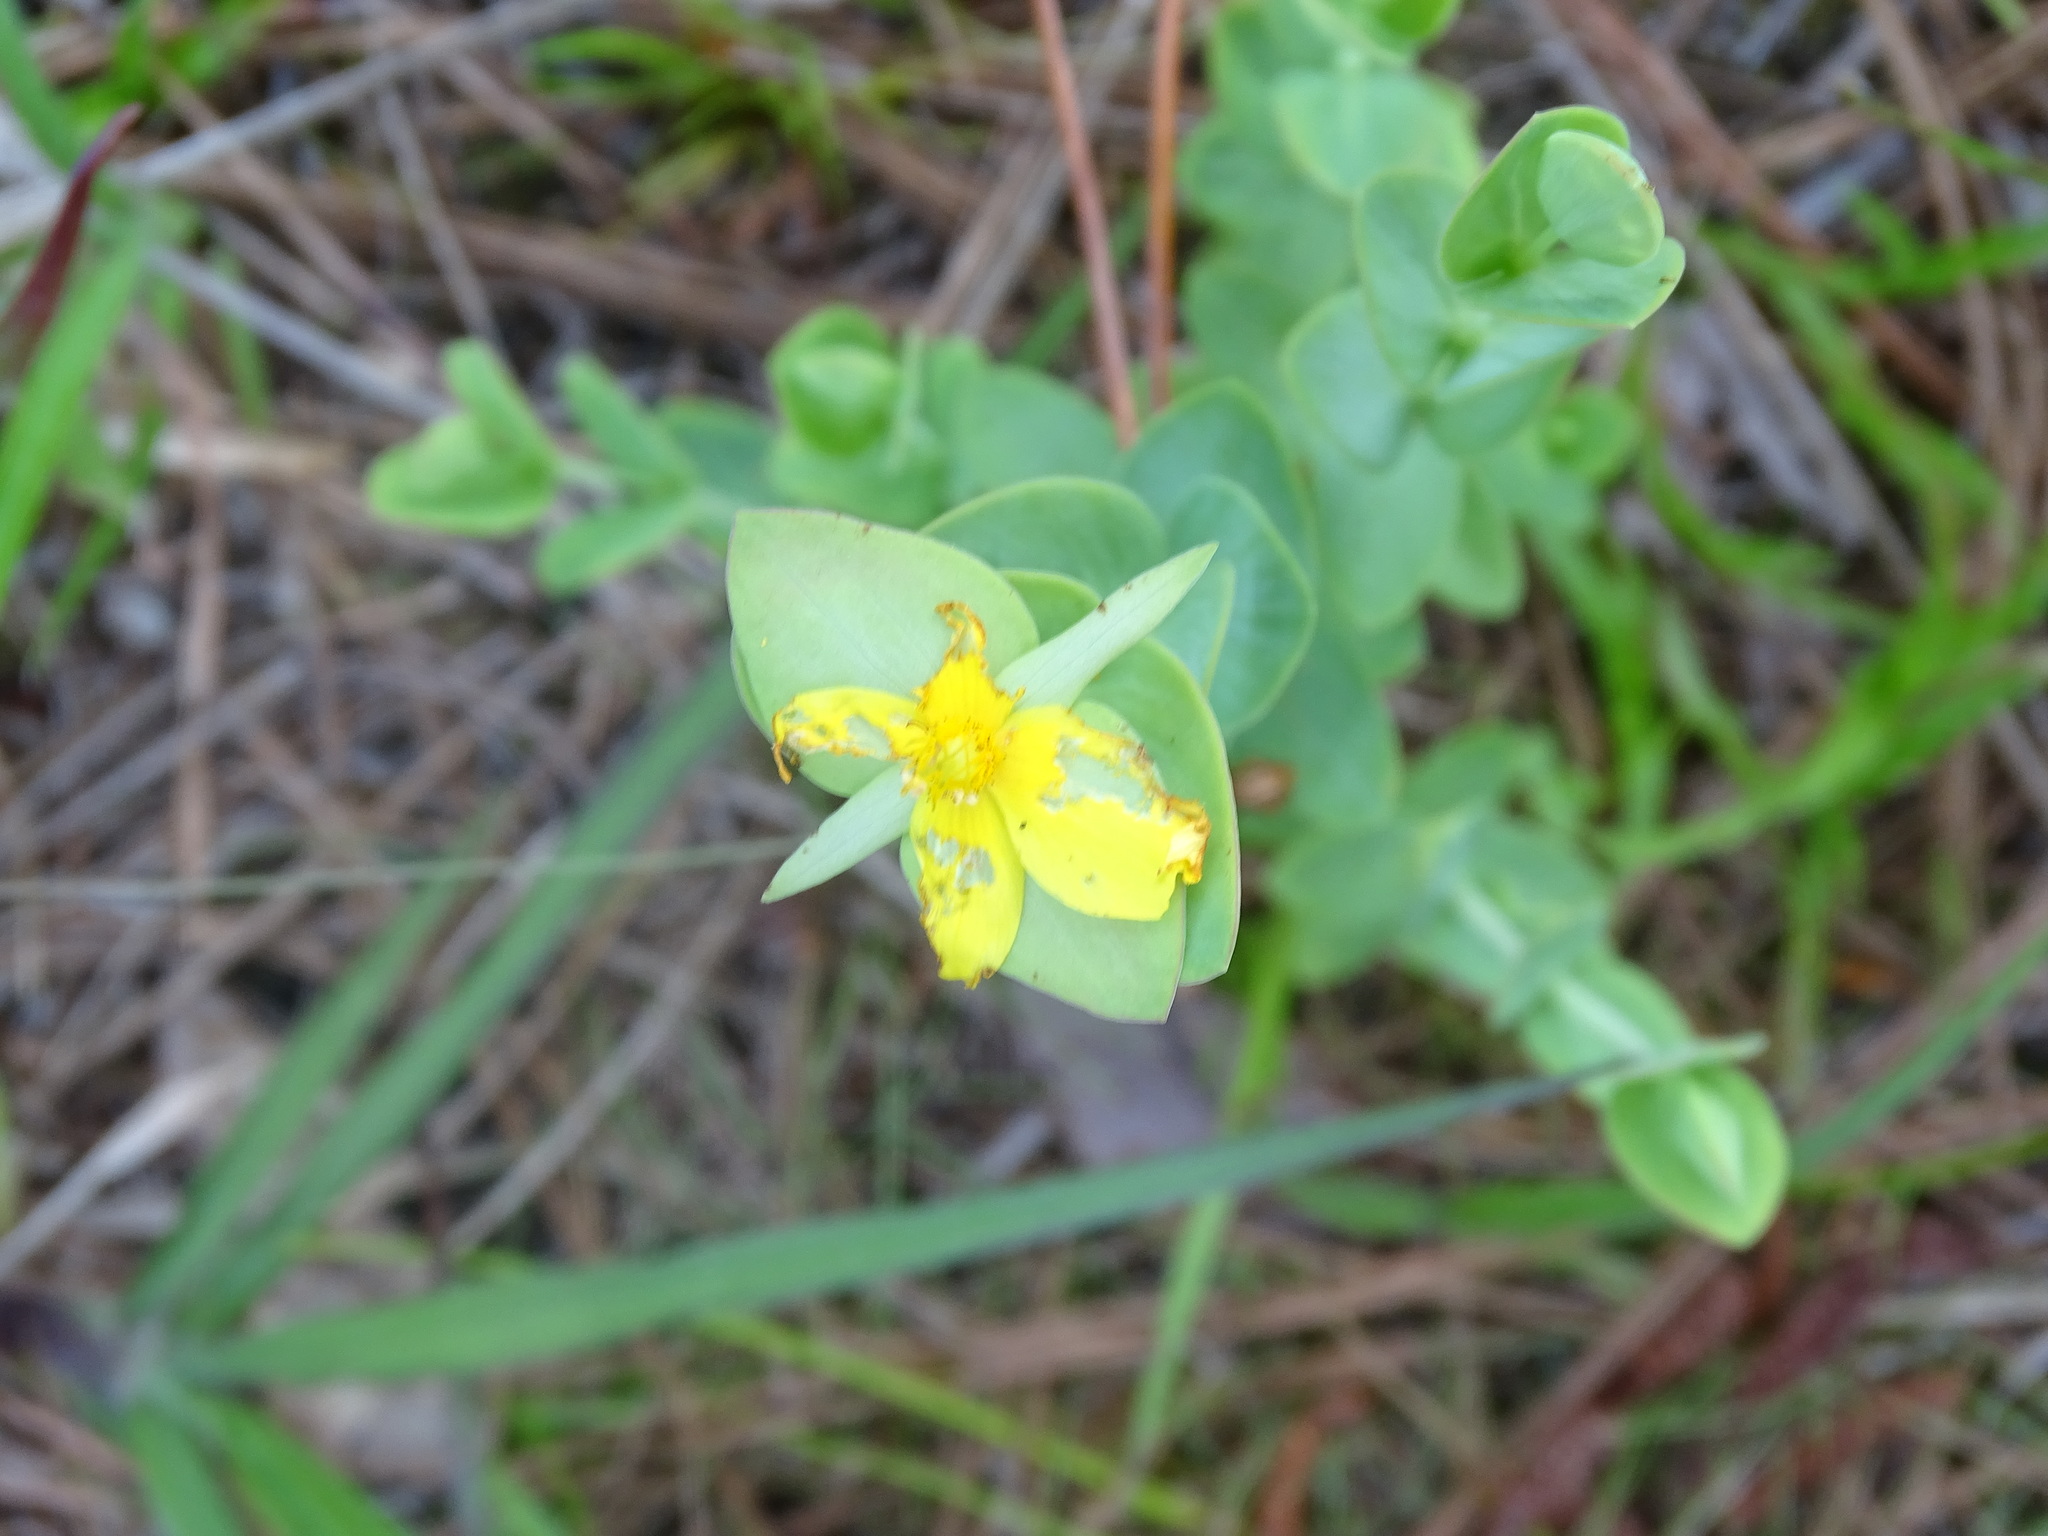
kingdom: Plantae
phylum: Tracheophyta
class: Magnoliopsida
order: Malpighiales
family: Hypericaceae
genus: Hypericum
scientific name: Hypericum tetrapetalum
